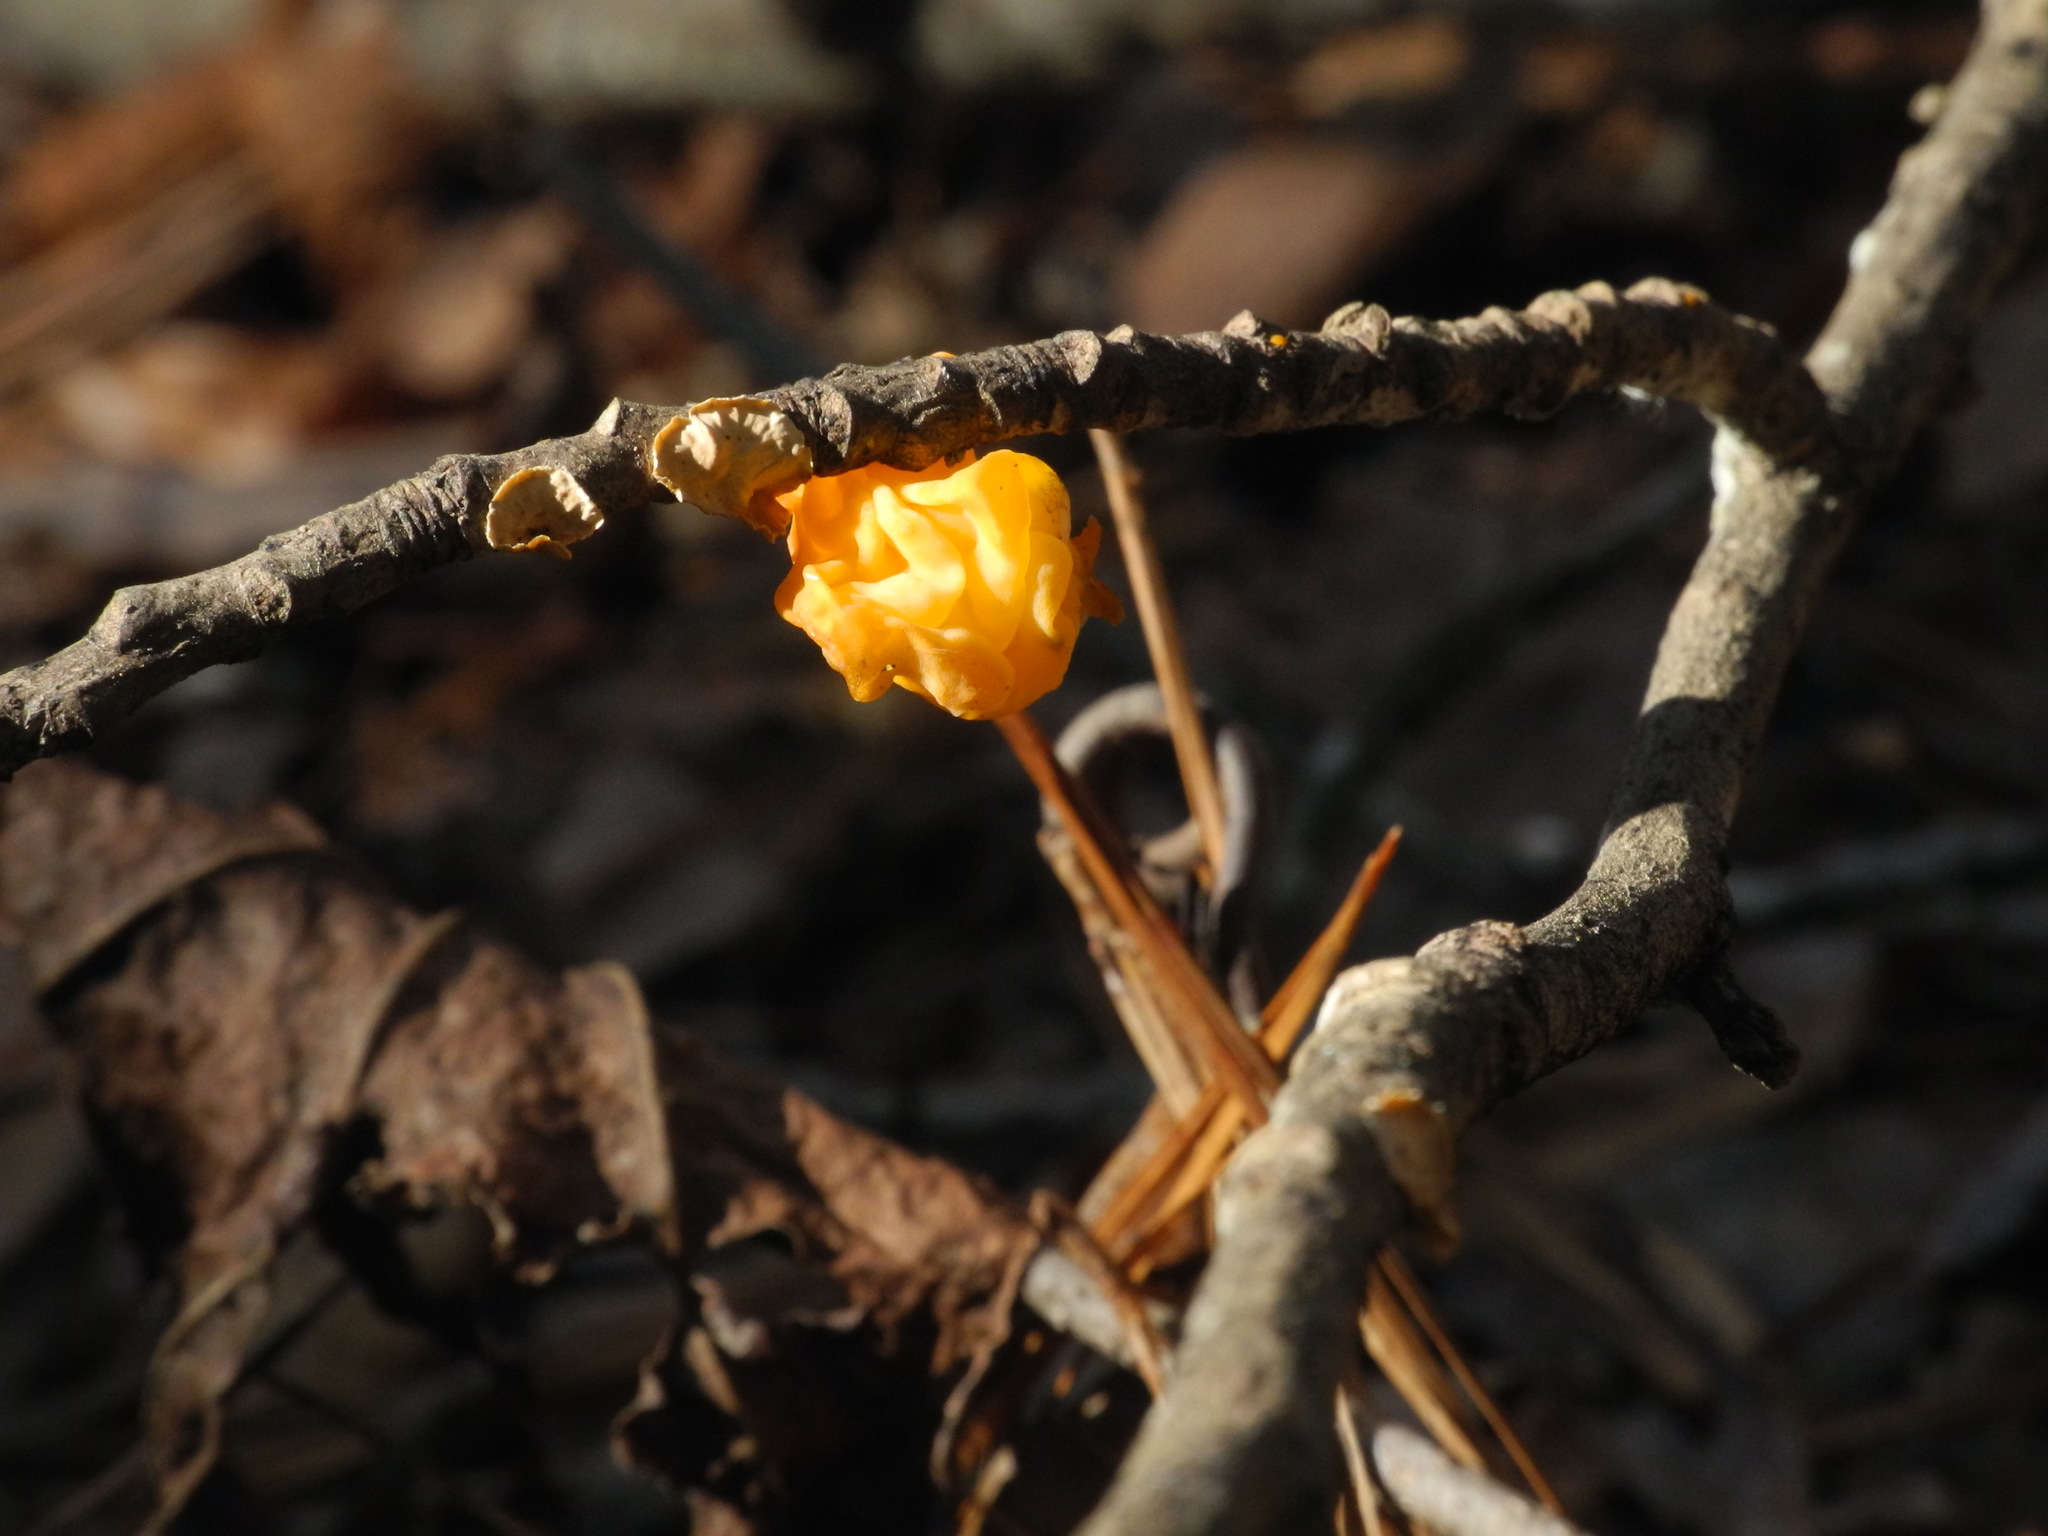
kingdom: Fungi
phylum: Basidiomycota
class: Dacrymycetes
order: Dacrymycetales
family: Dacrymycetaceae
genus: Dacrymyces
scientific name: Dacrymyces chrysospermus
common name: Orange jelly spot
